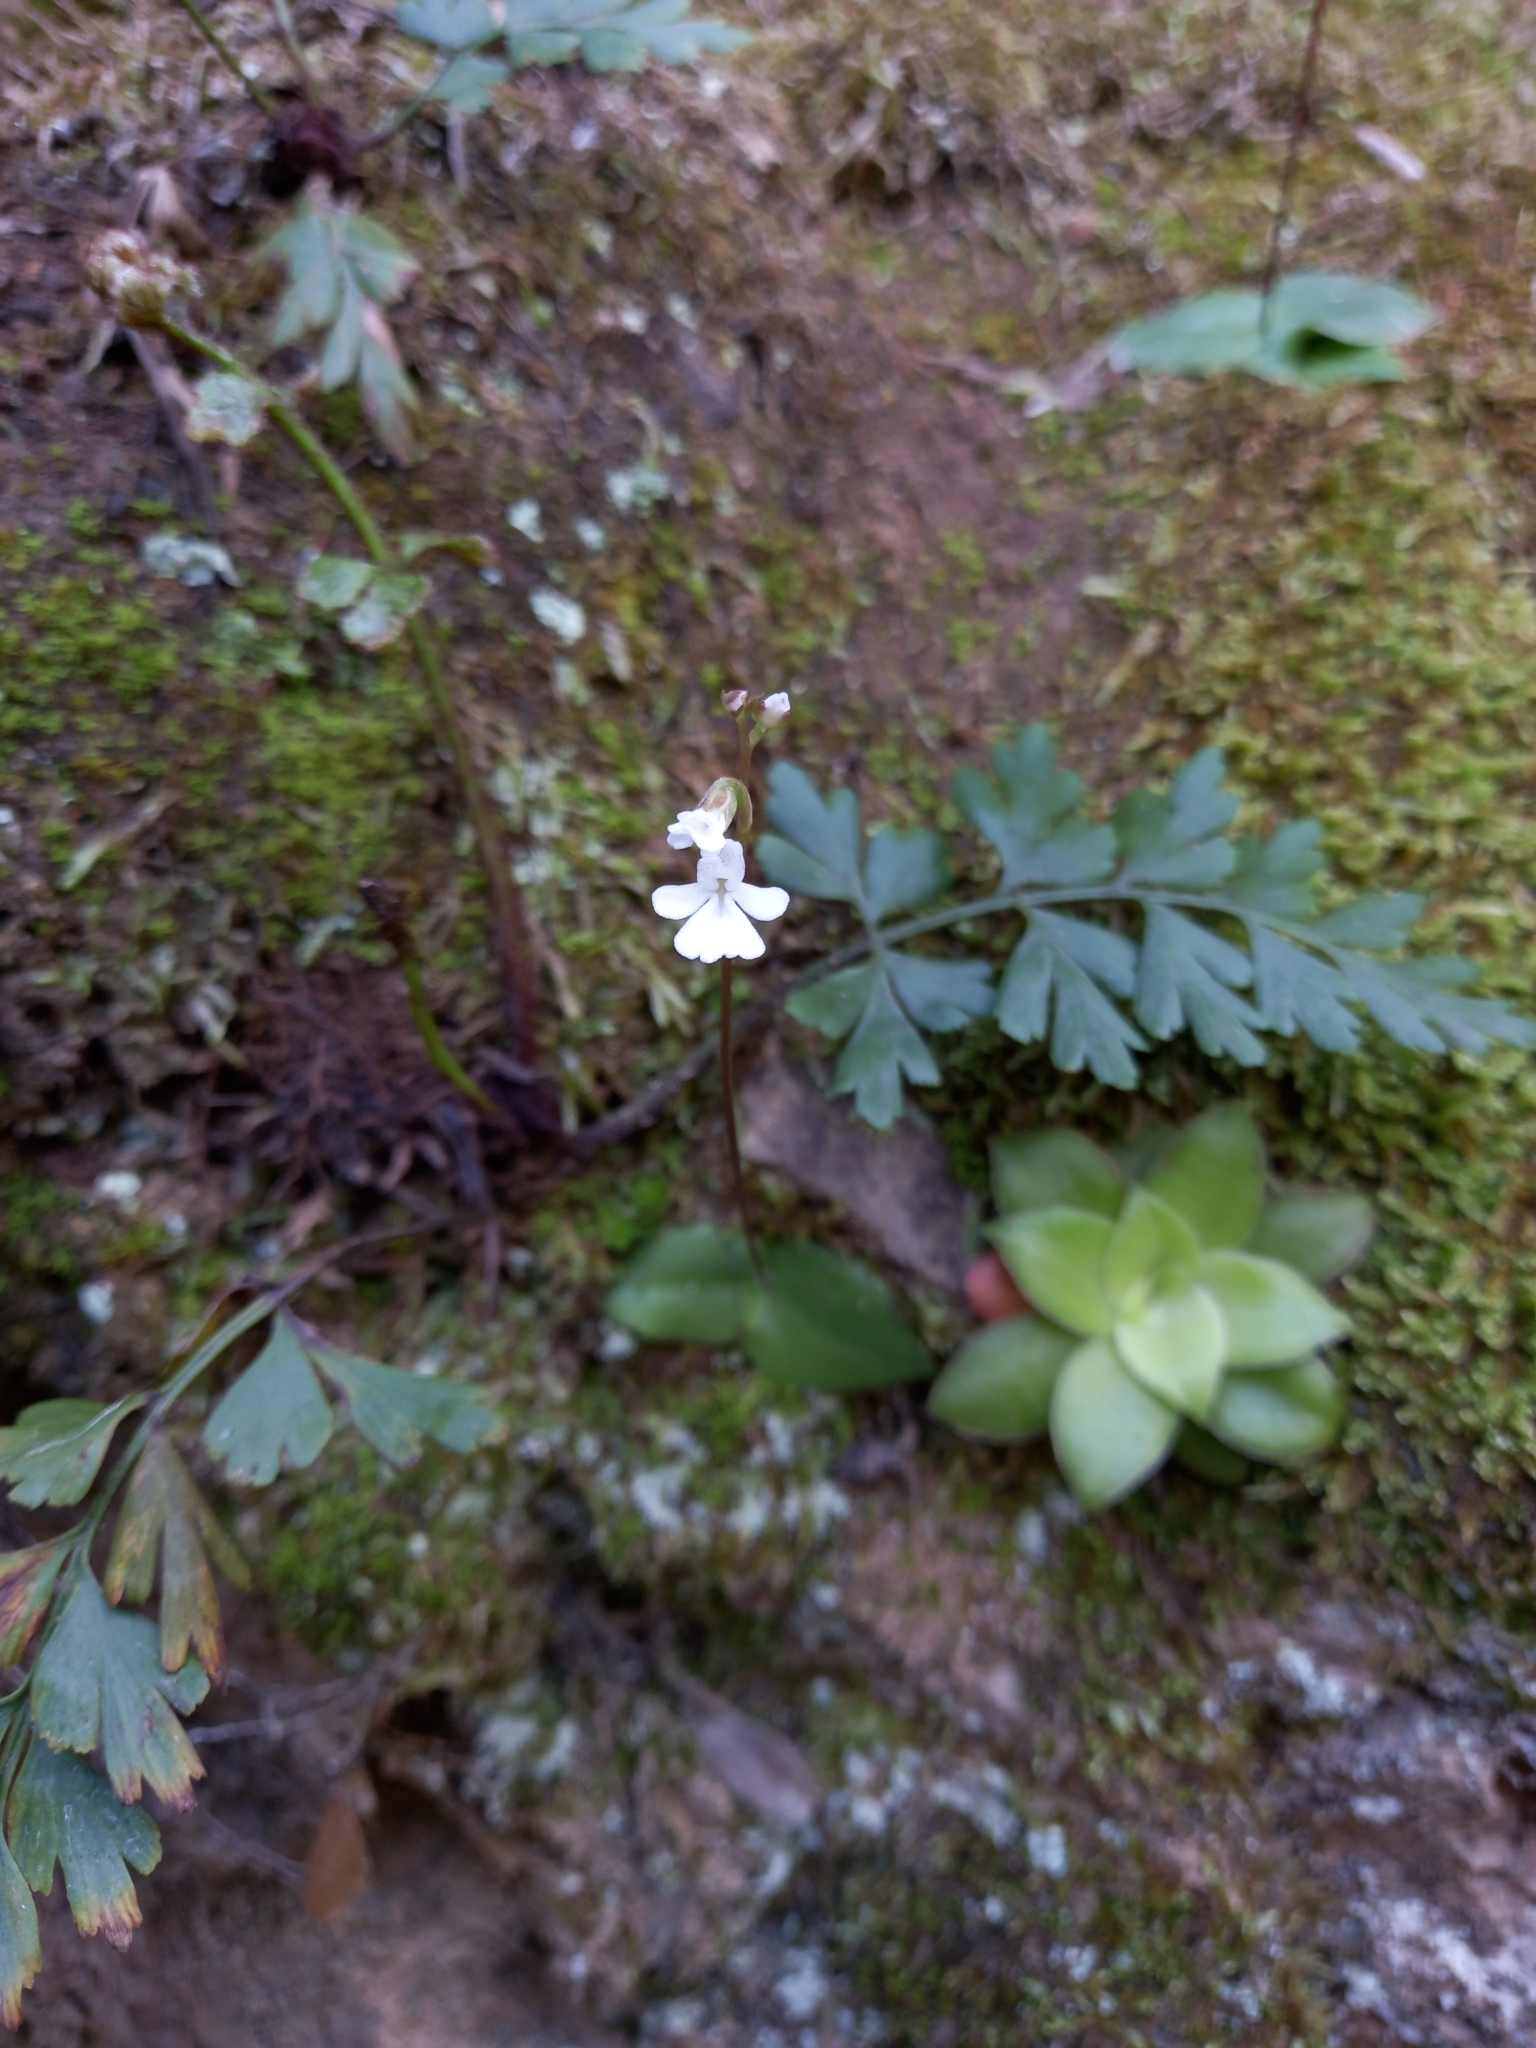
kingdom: Plantae
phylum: Tracheophyta
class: Liliopsida
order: Asparagales
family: Orchidaceae
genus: Holothrix
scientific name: Holothrix parviflora
